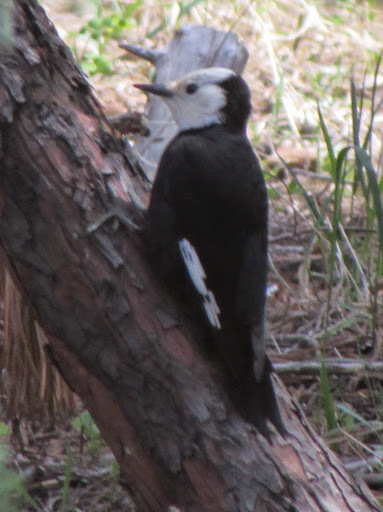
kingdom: Animalia
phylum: Chordata
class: Aves
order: Piciformes
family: Picidae
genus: Leuconotopicus
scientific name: Leuconotopicus albolarvatus
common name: White-headed woodpecker
